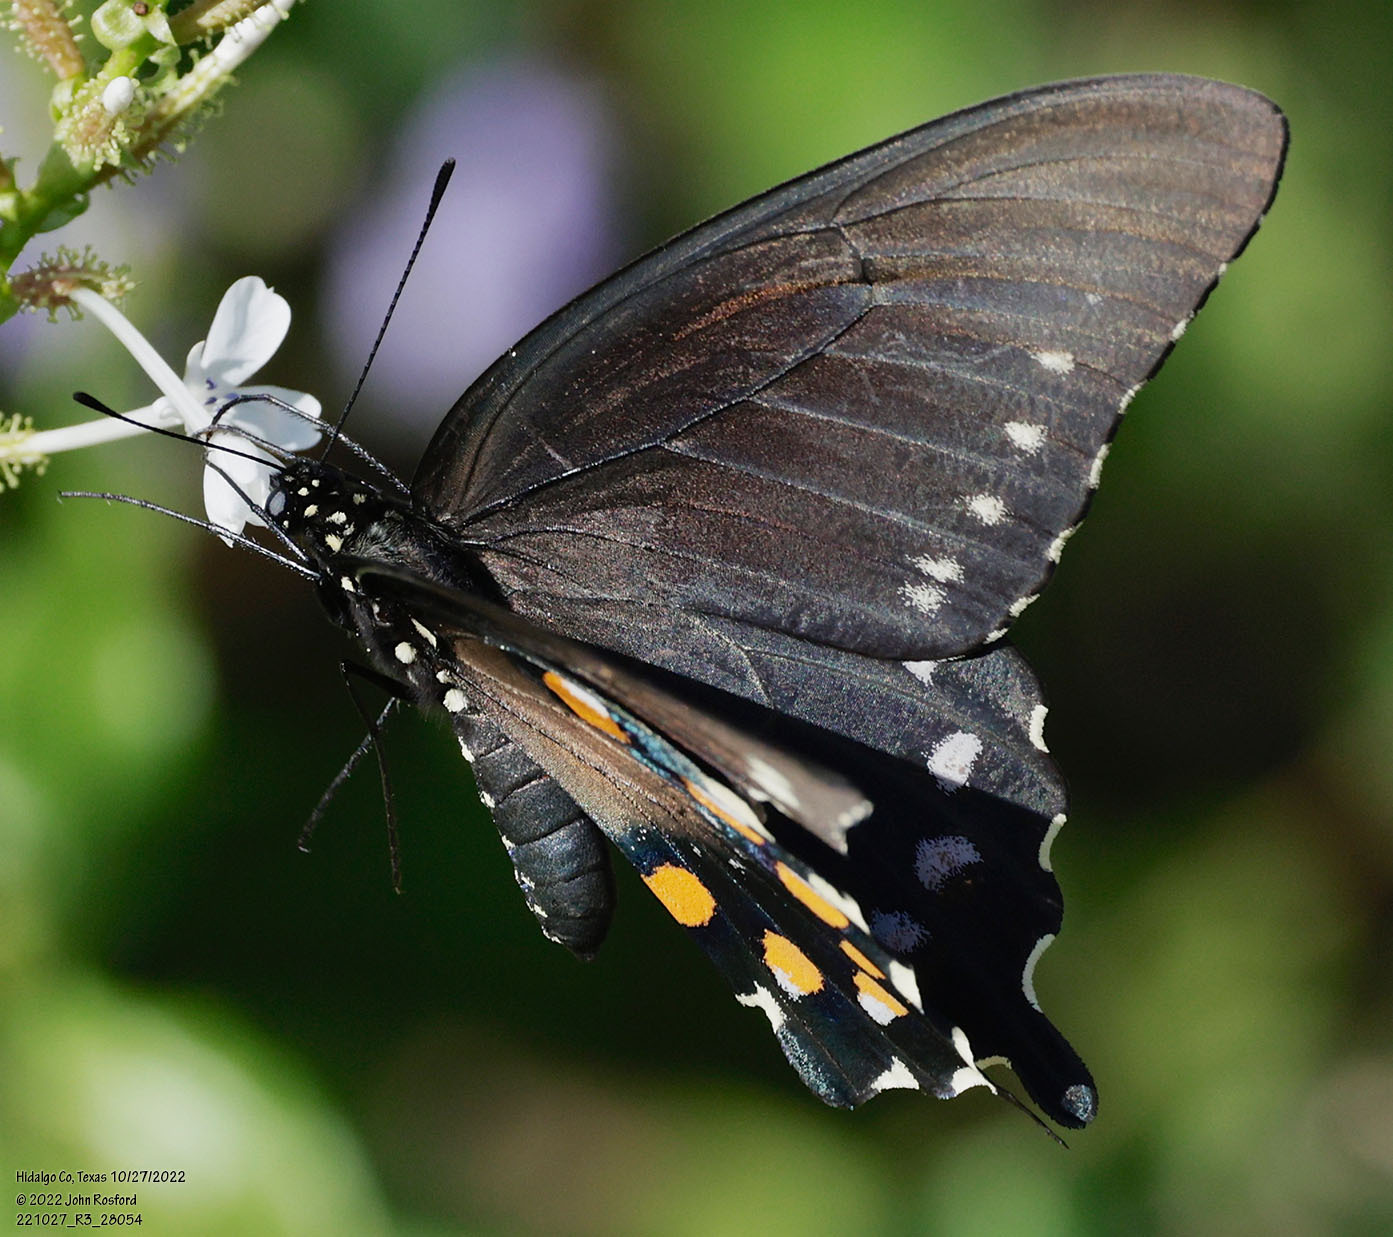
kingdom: Animalia
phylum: Arthropoda
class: Insecta
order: Lepidoptera
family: Papilionidae
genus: Battus
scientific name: Battus philenor
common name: Pipevine swallowtail
